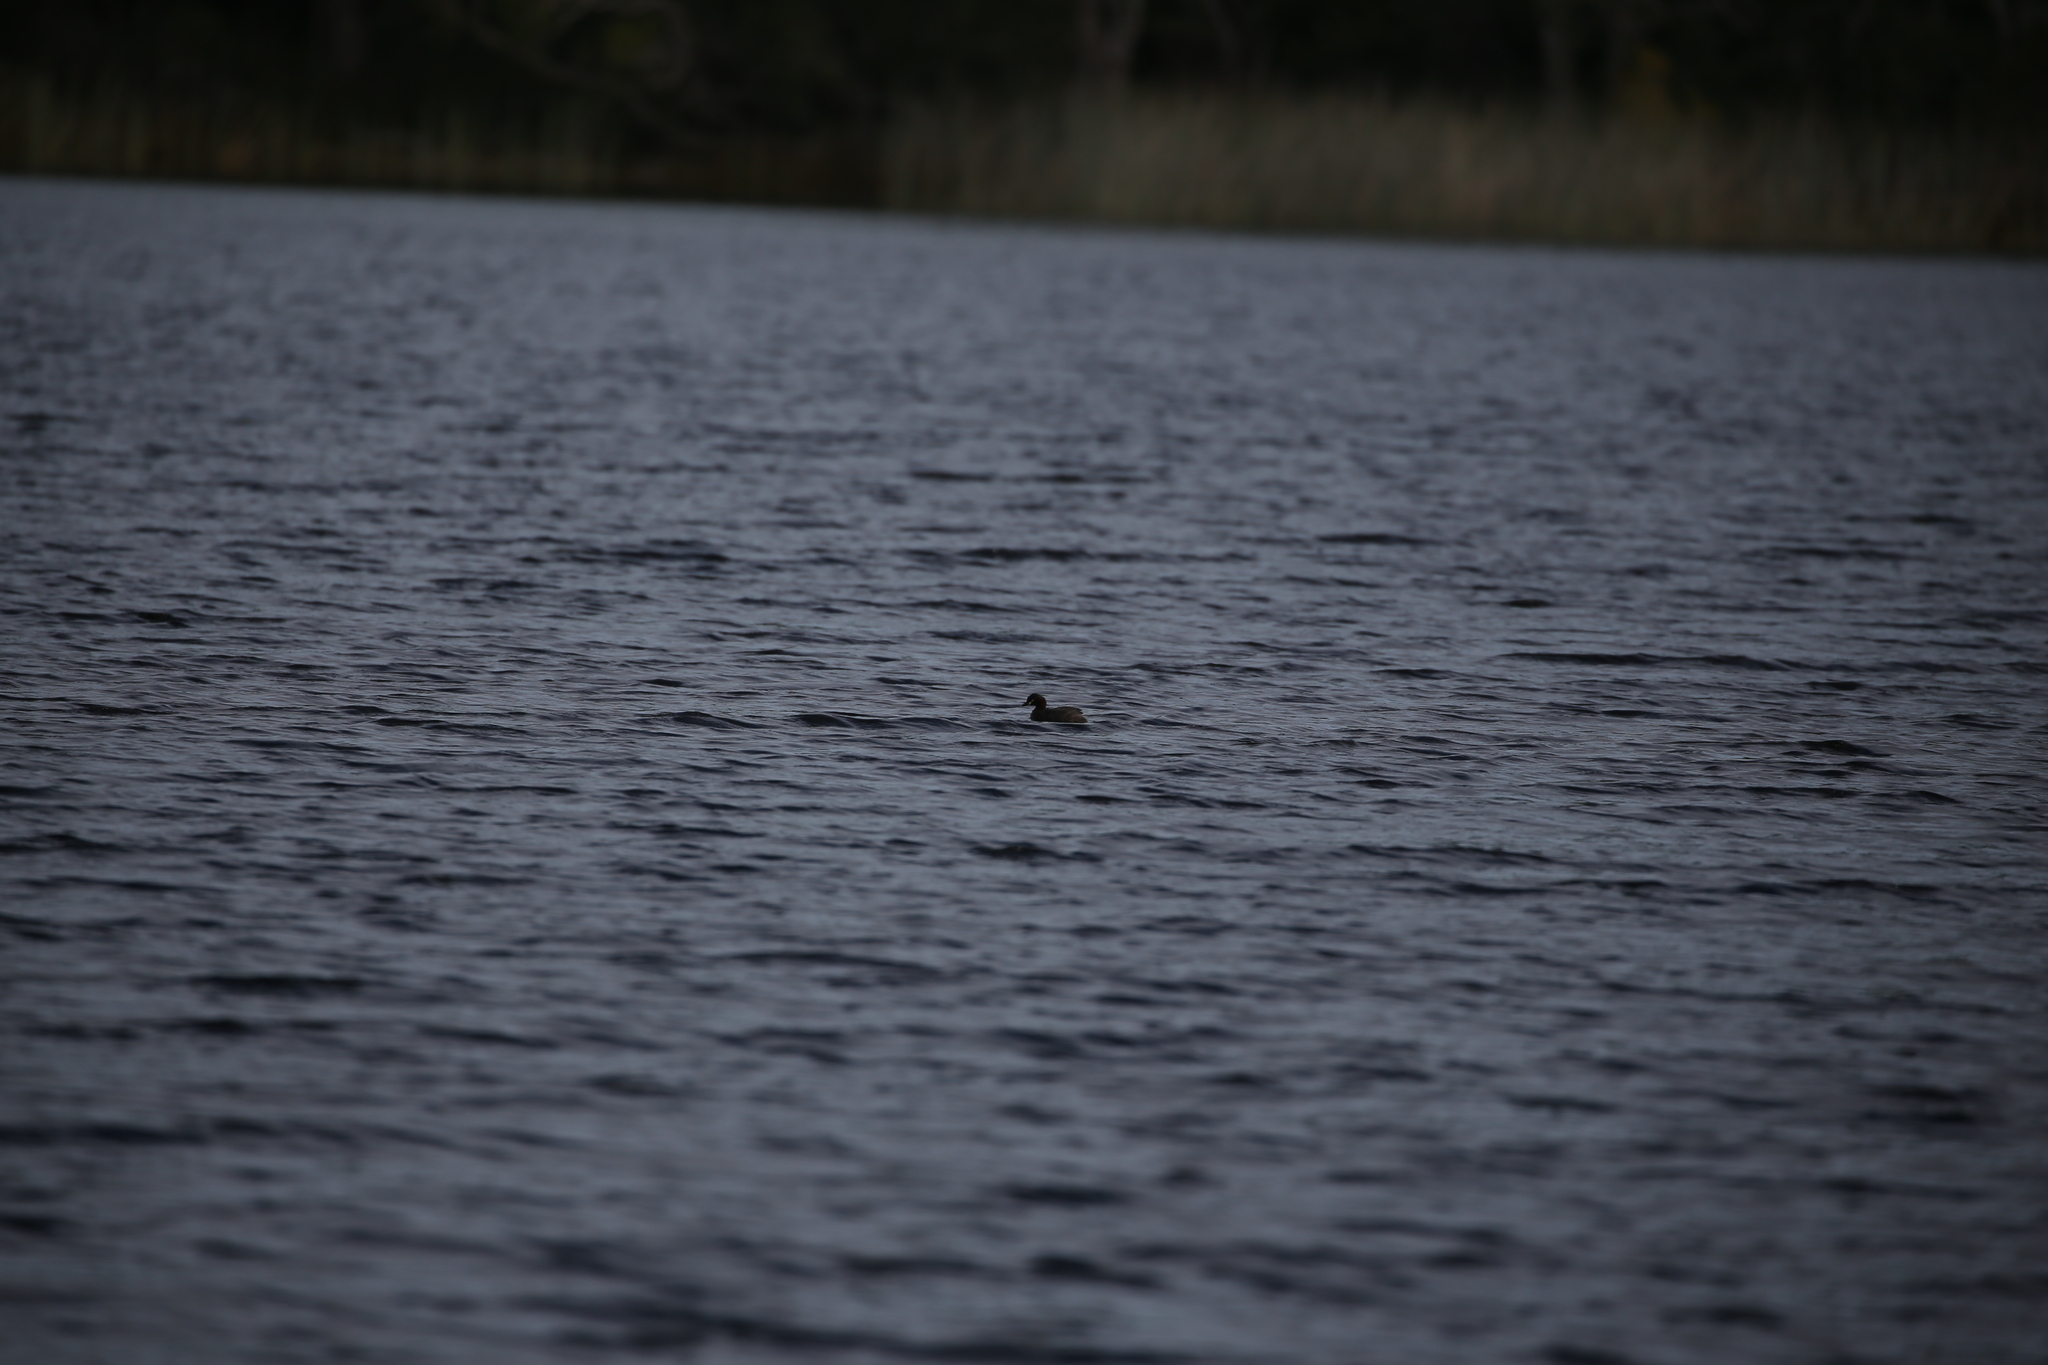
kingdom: Animalia
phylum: Chordata
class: Aves
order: Podicipediformes
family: Podicipedidae
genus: Tachybaptus
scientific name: Tachybaptus novaehollandiae
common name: Australasian grebe
